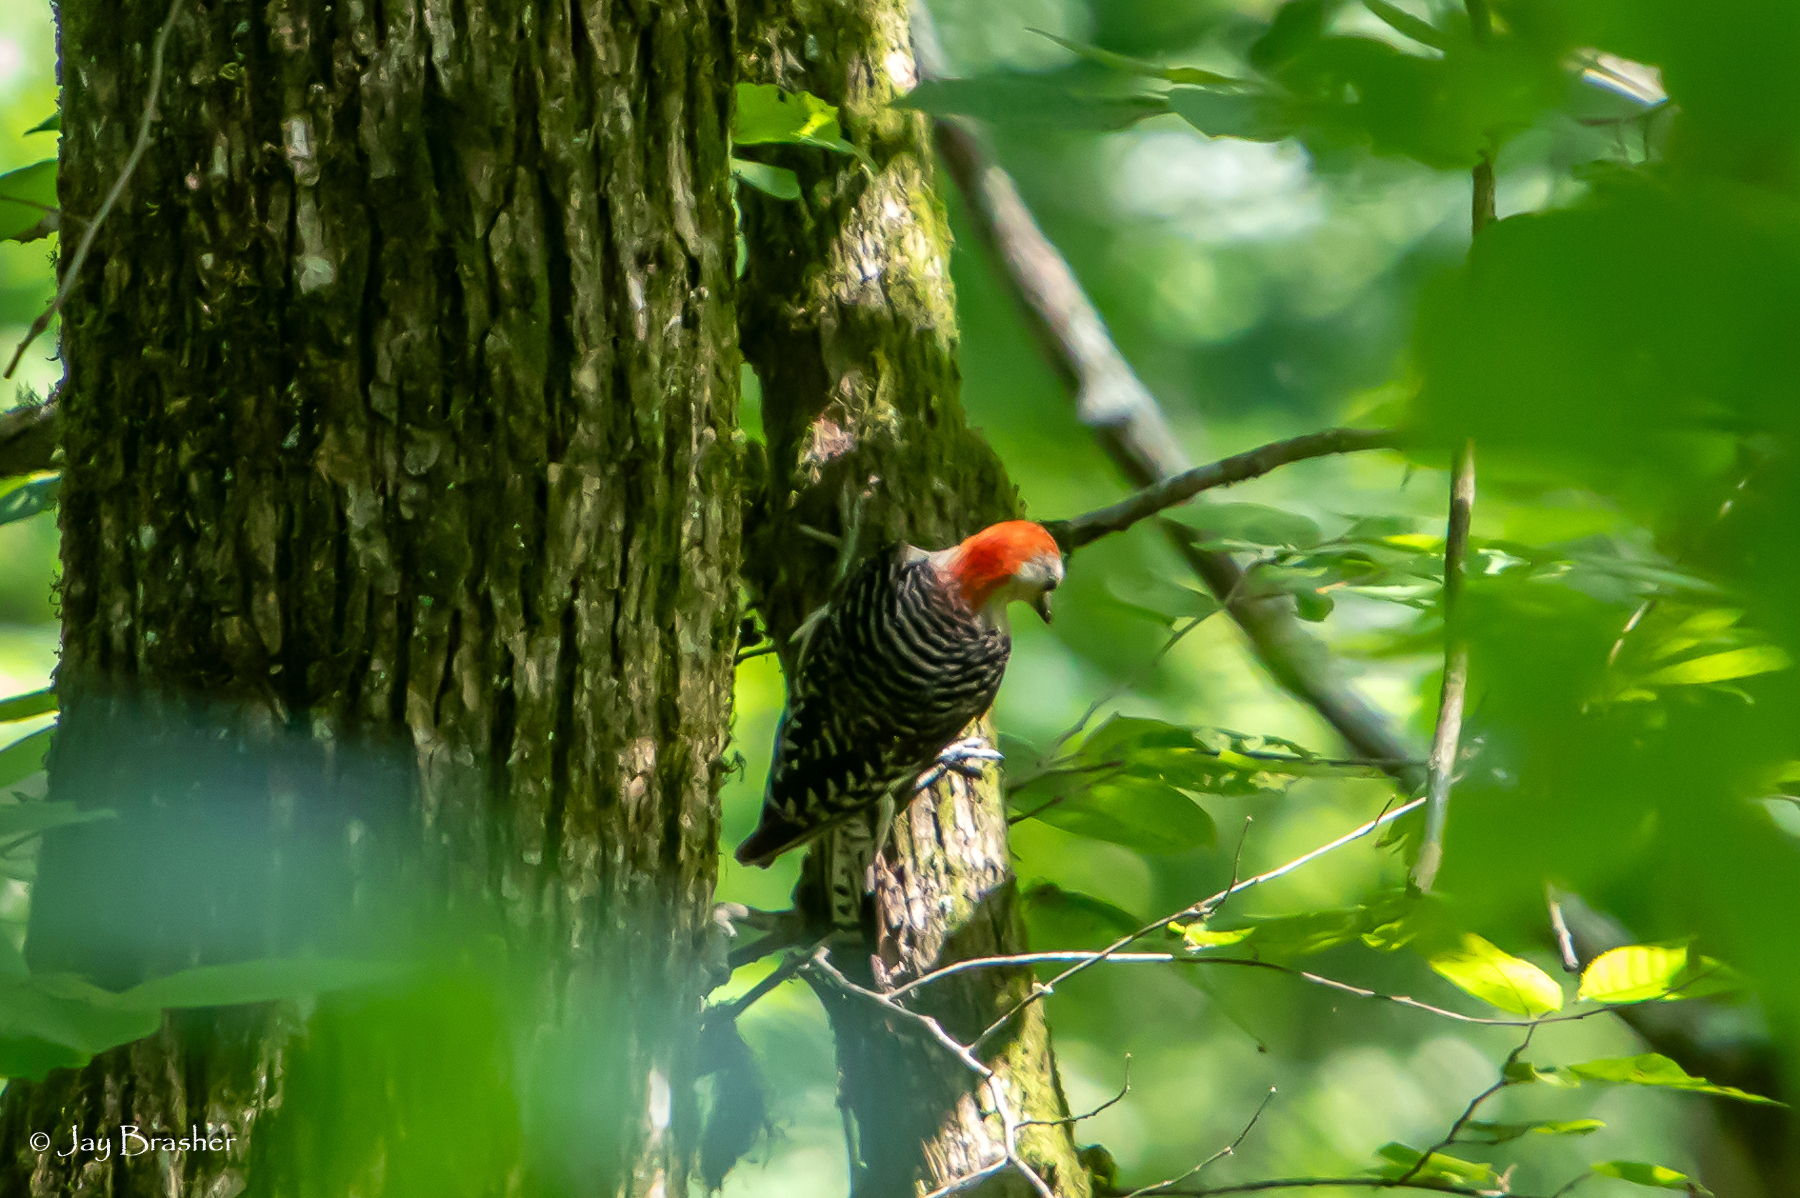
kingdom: Animalia
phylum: Chordata
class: Aves
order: Piciformes
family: Picidae
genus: Melanerpes
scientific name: Melanerpes carolinus
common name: Red-bellied woodpecker
